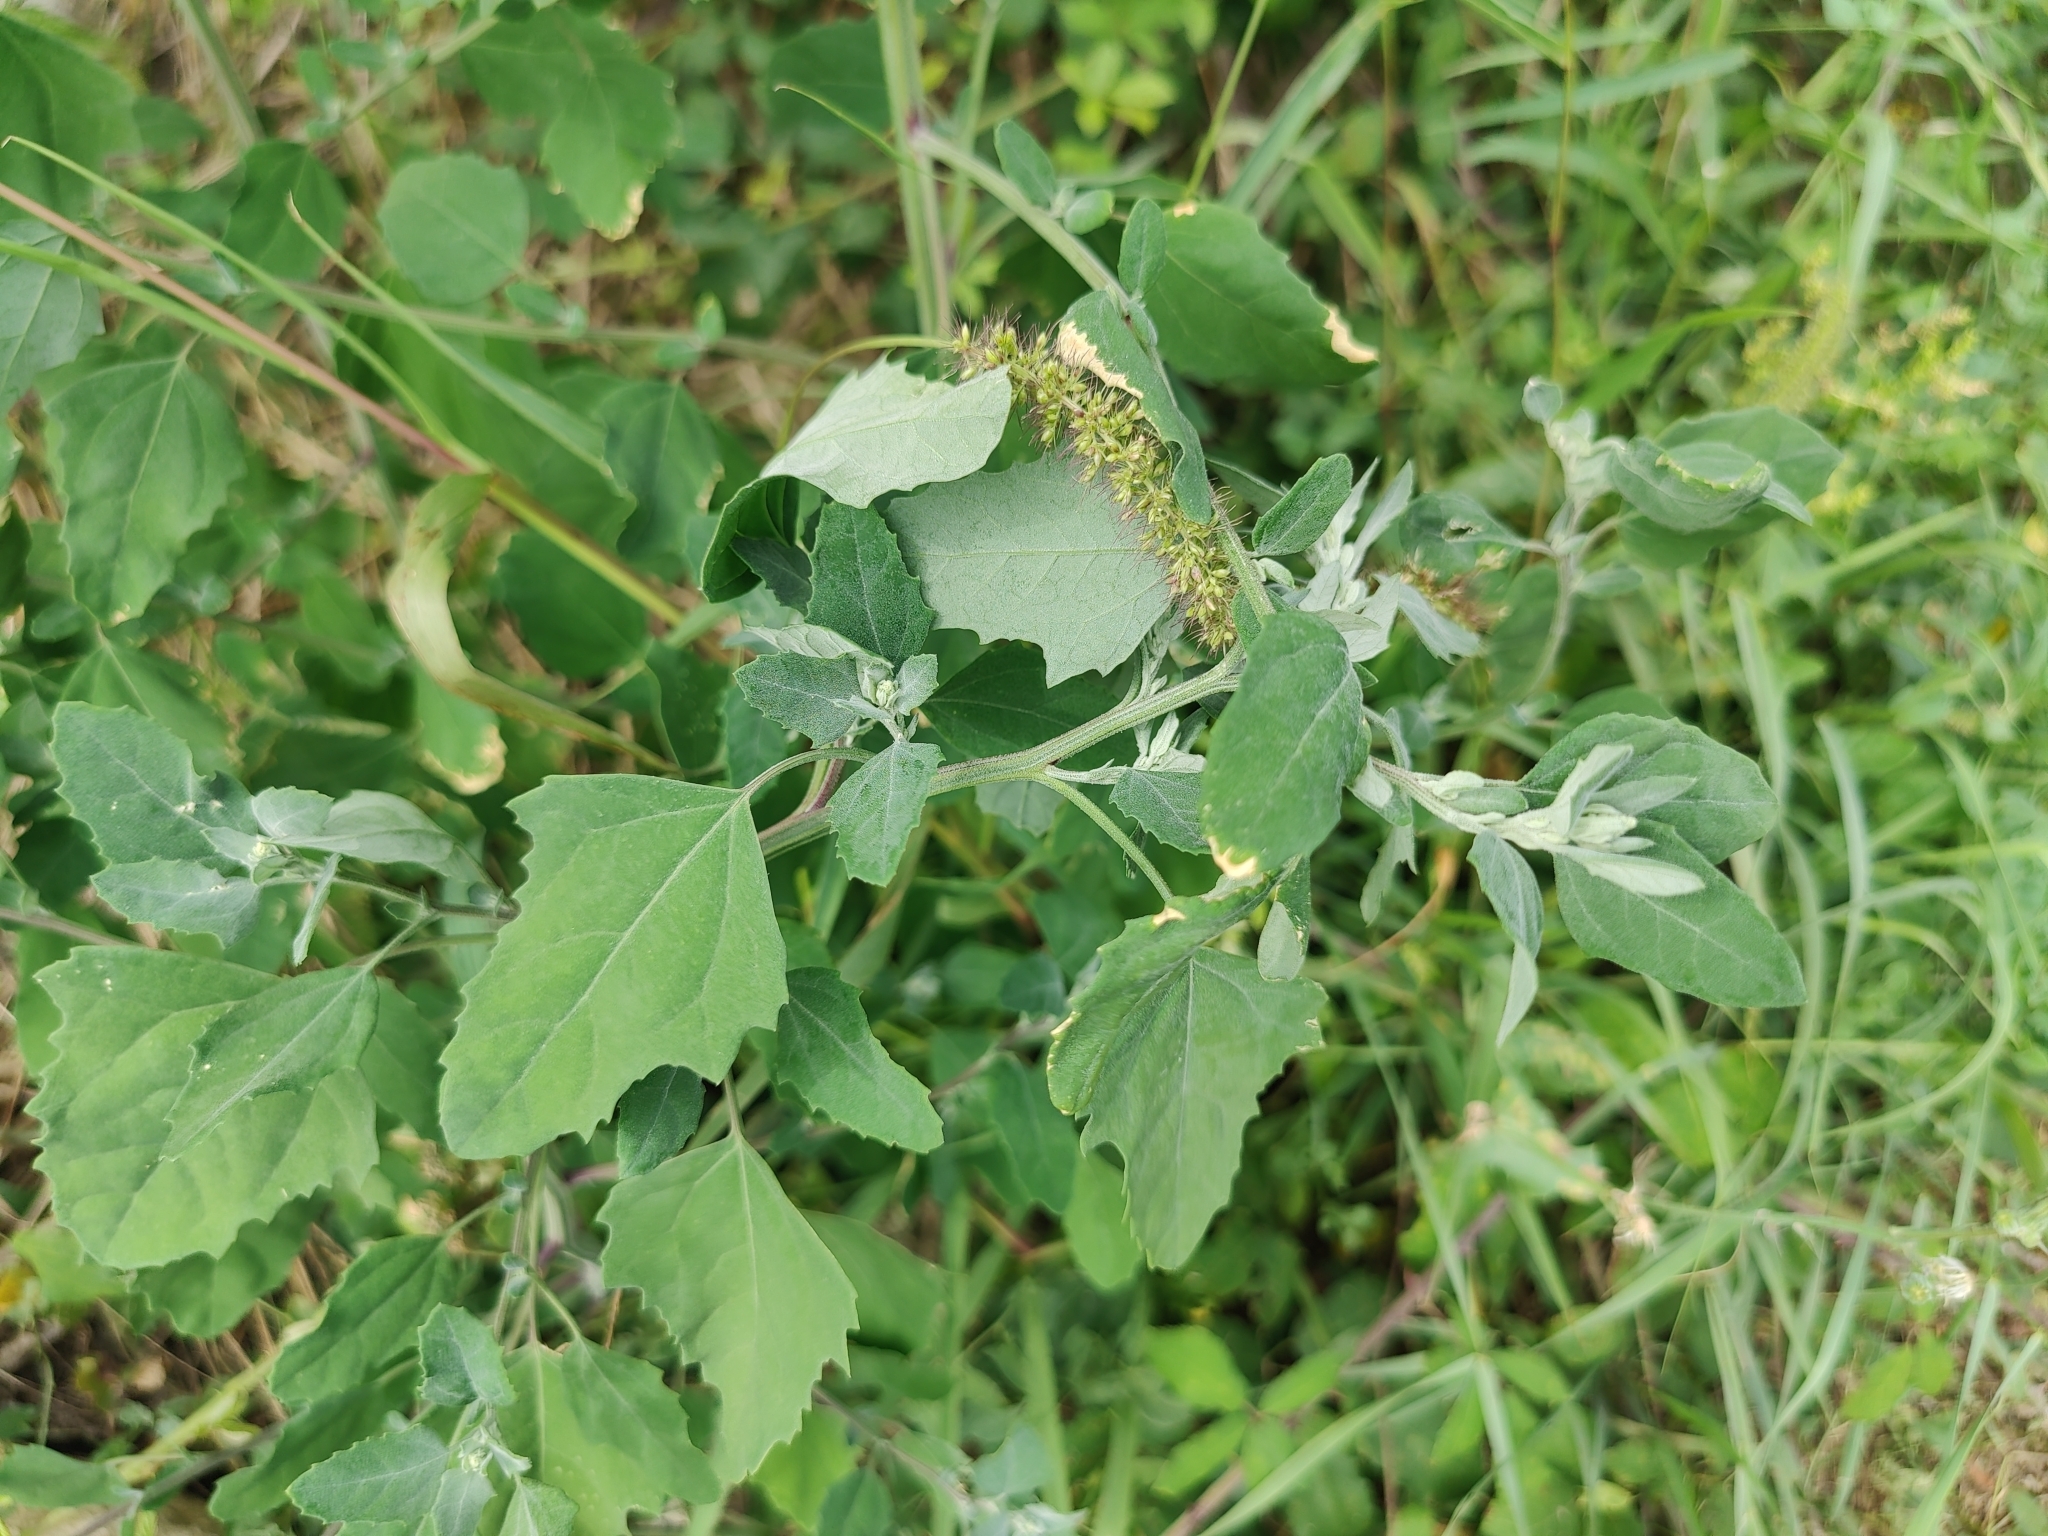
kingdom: Plantae
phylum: Tracheophyta
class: Magnoliopsida
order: Caryophyllales
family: Amaranthaceae
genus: Chenopodium
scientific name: Chenopodium album
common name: Fat-hen
